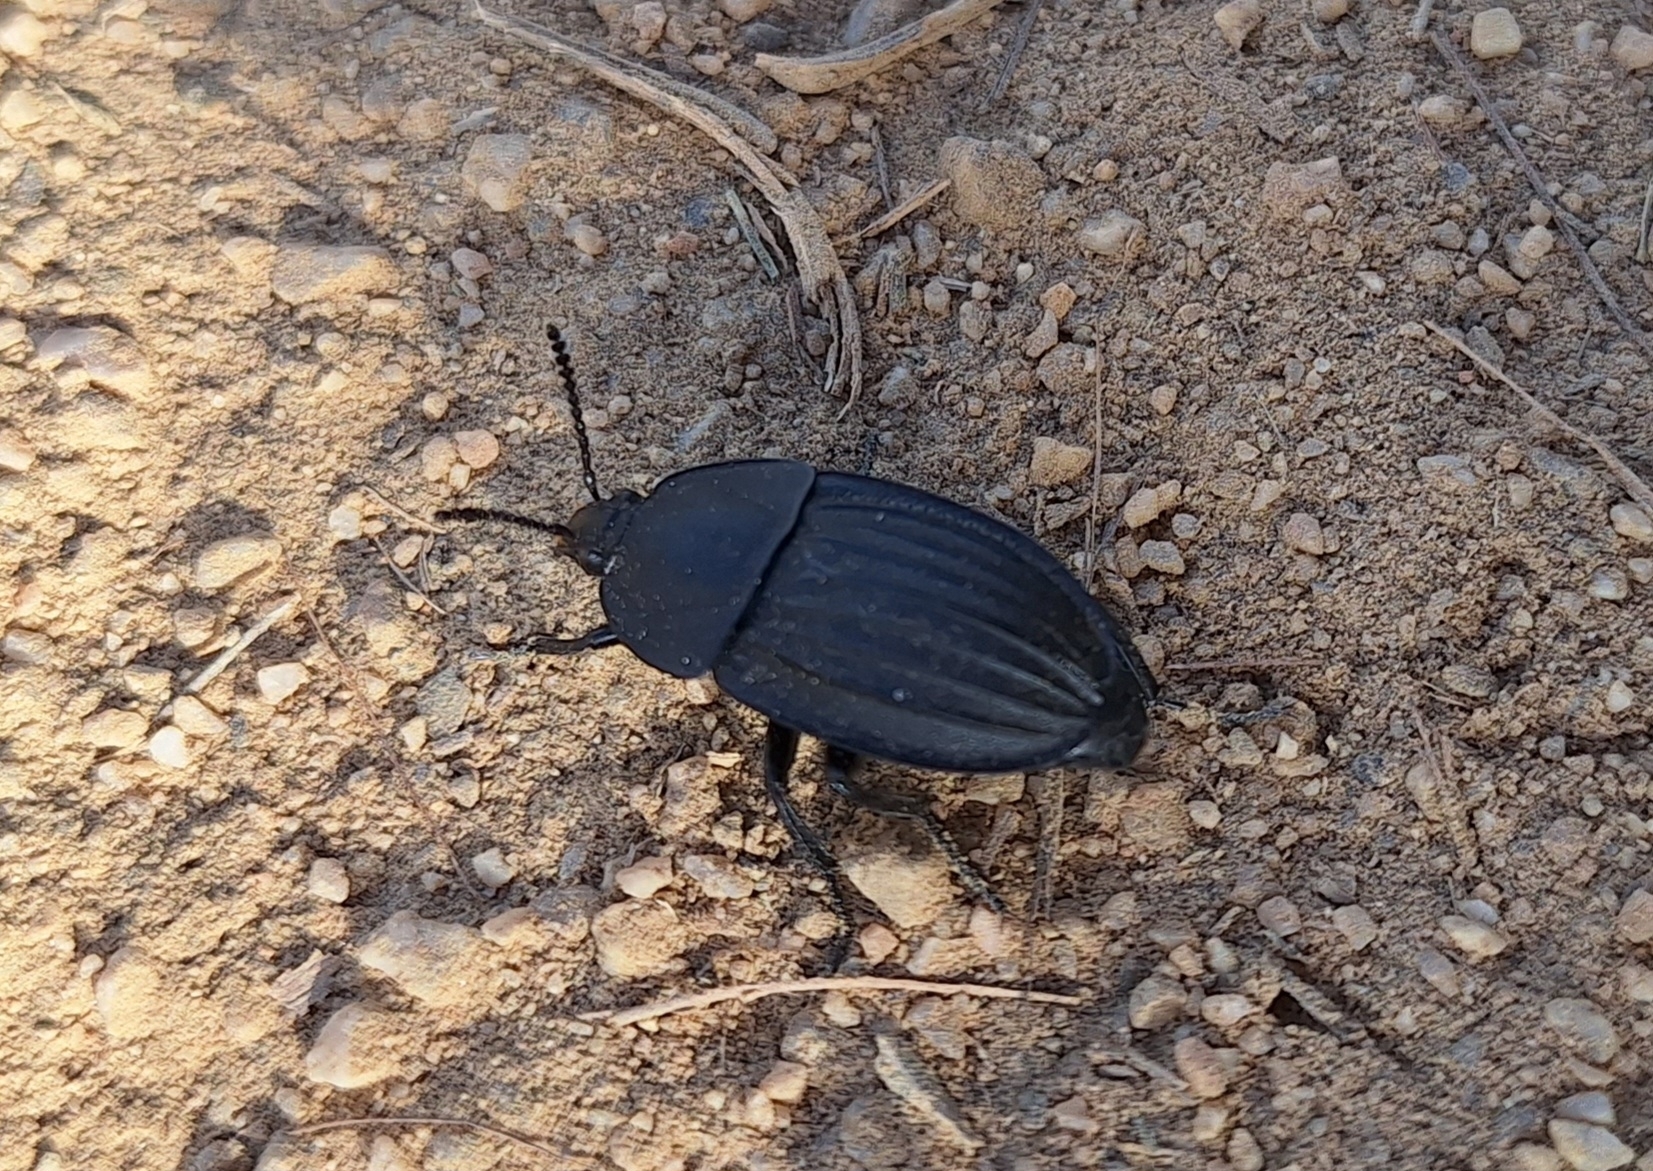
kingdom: Animalia
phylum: Arthropoda
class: Insecta
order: Coleoptera
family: Staphylinidae
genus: Silpha
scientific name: Silpha capicola
